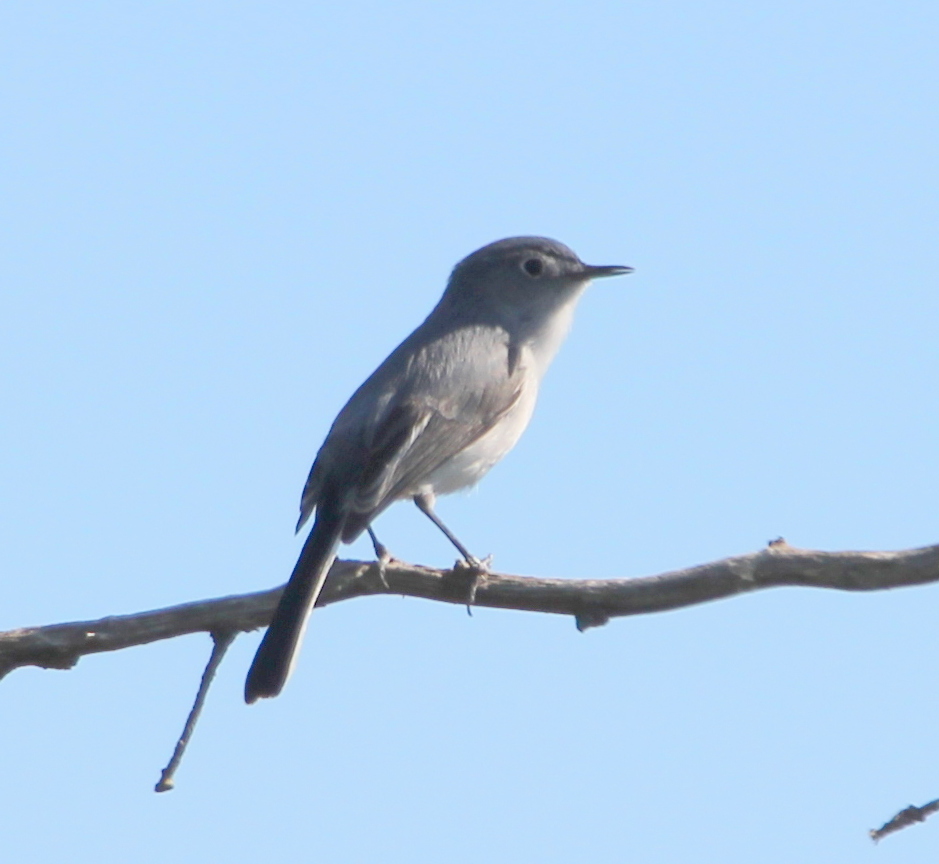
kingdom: Animalia
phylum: Chordata
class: Aves
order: Passeriformes
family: Polioptilidae
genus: Polioptila
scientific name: Polioptila caerulea
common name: Blue-gray gnatcatcher
